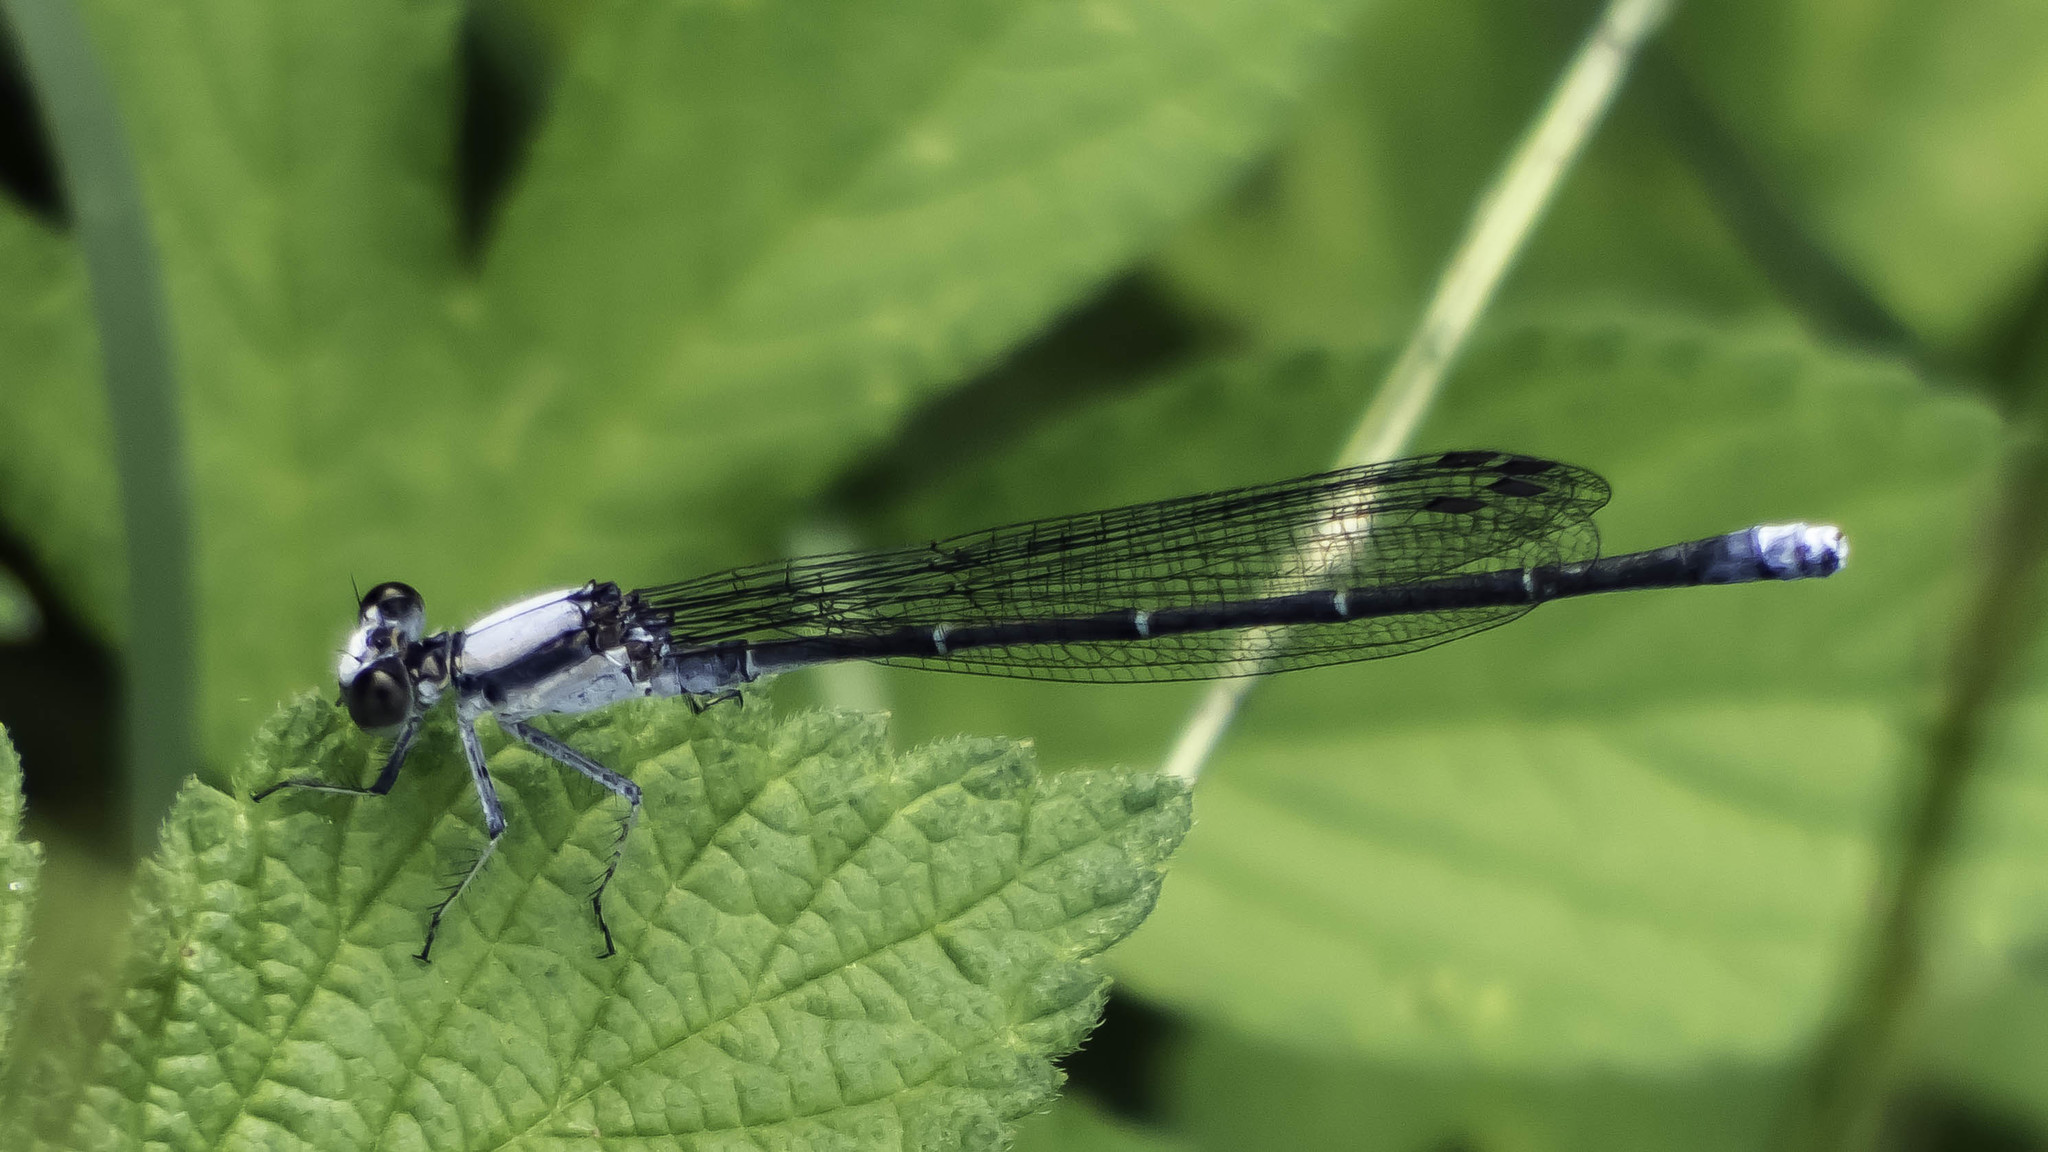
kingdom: Animalia
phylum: Arthropoda
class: Insecta
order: Odonata
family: Coenagrionidae
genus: Argia
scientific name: Argia moesta
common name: Powdered dancer
